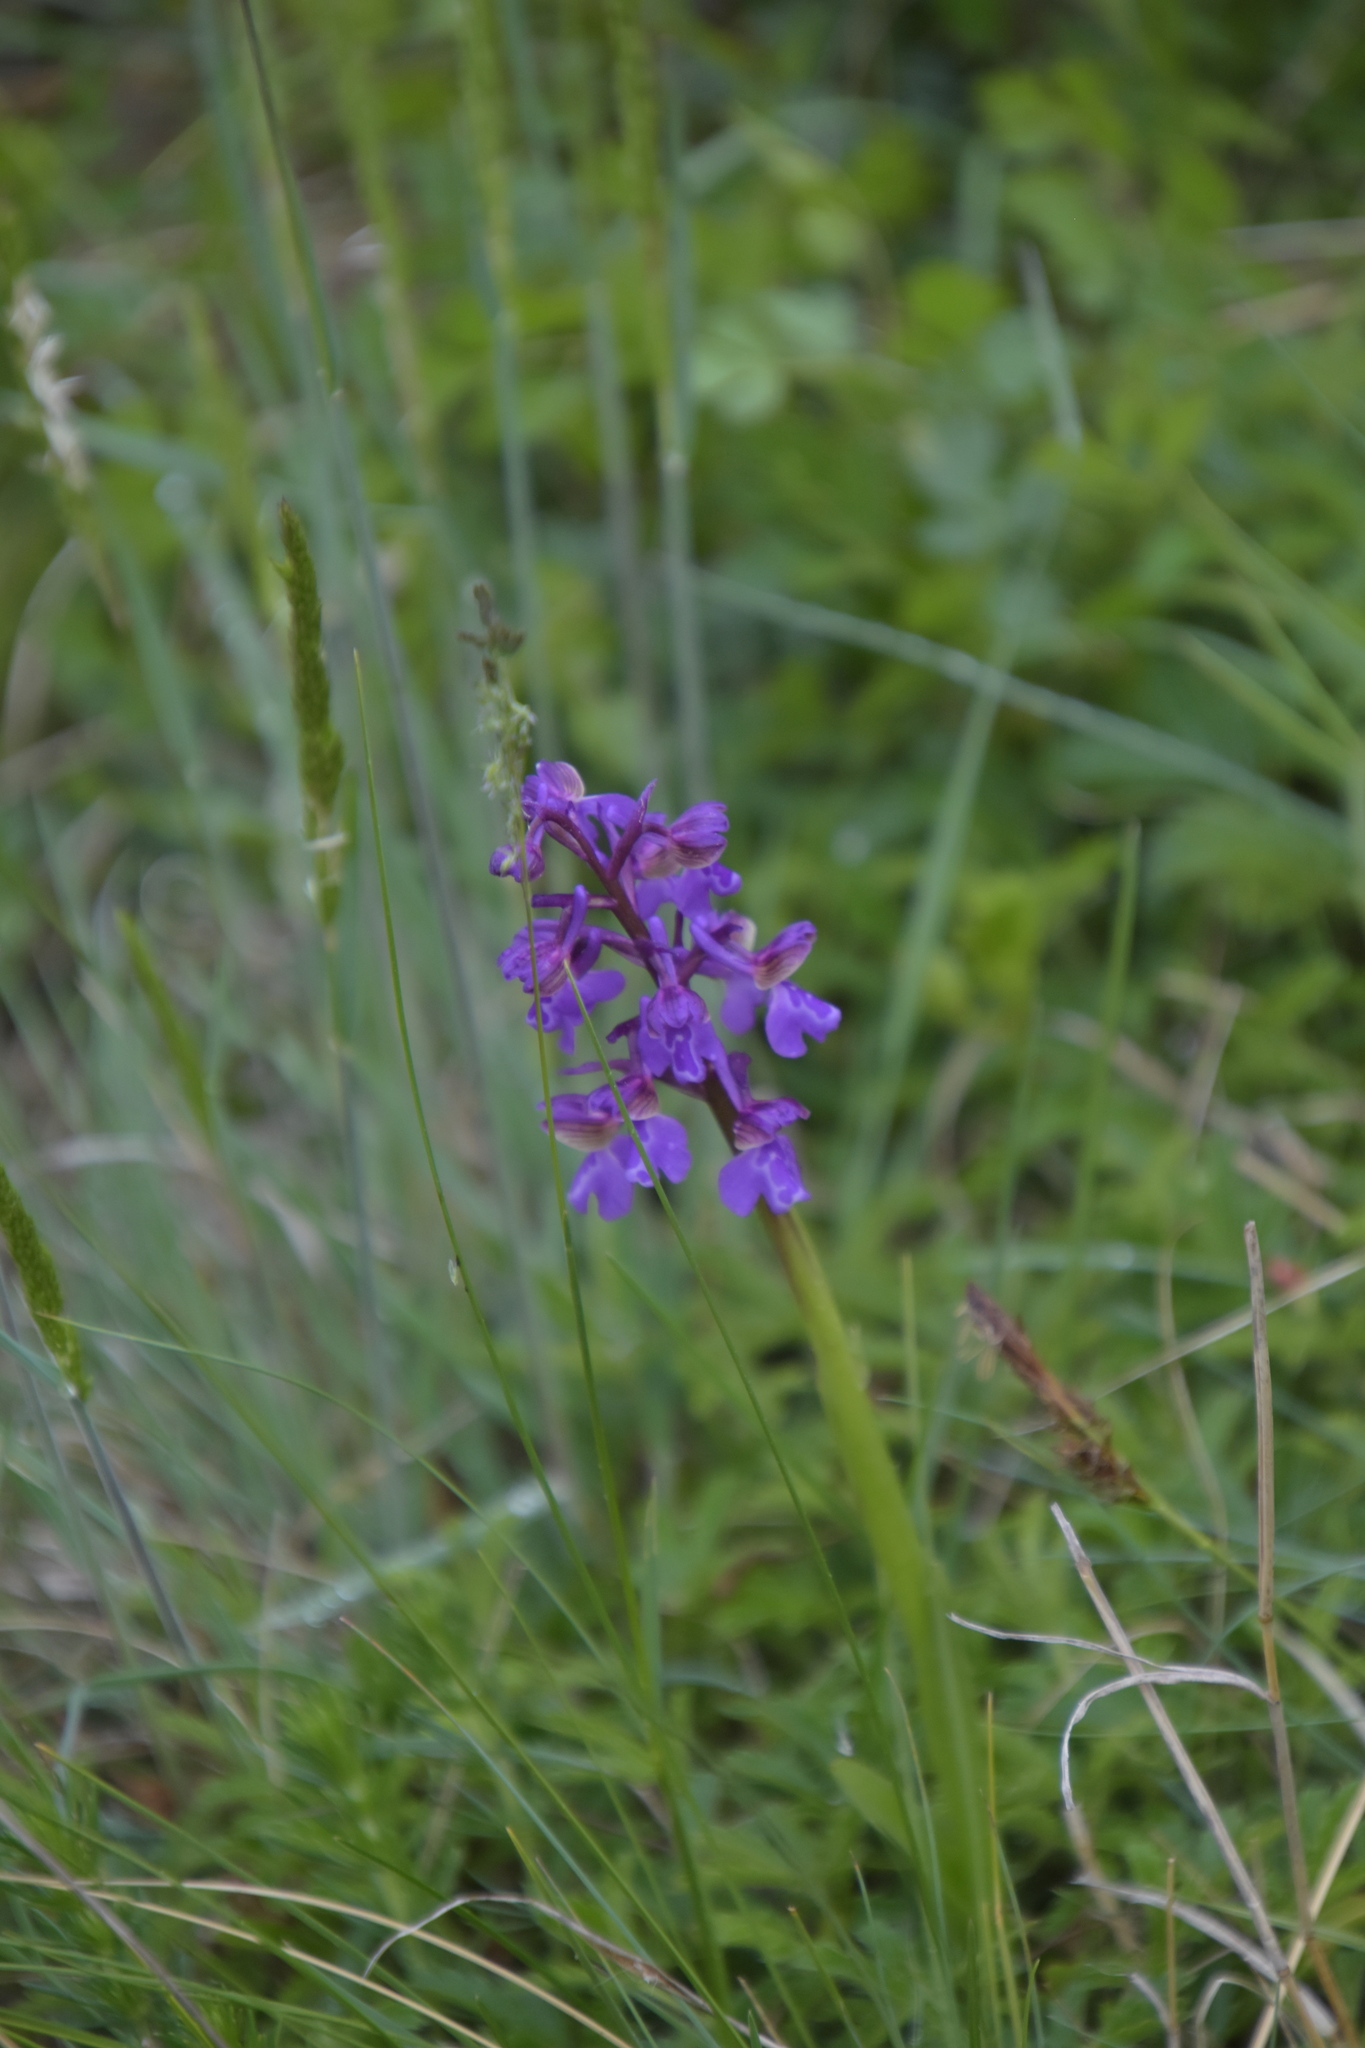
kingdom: Plantae
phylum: Tracheophyta
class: Liliopsida
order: Asparagales
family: Orchidaceae
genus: Anacamptis
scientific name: Anacamptis morio
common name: Green-winged orchid
